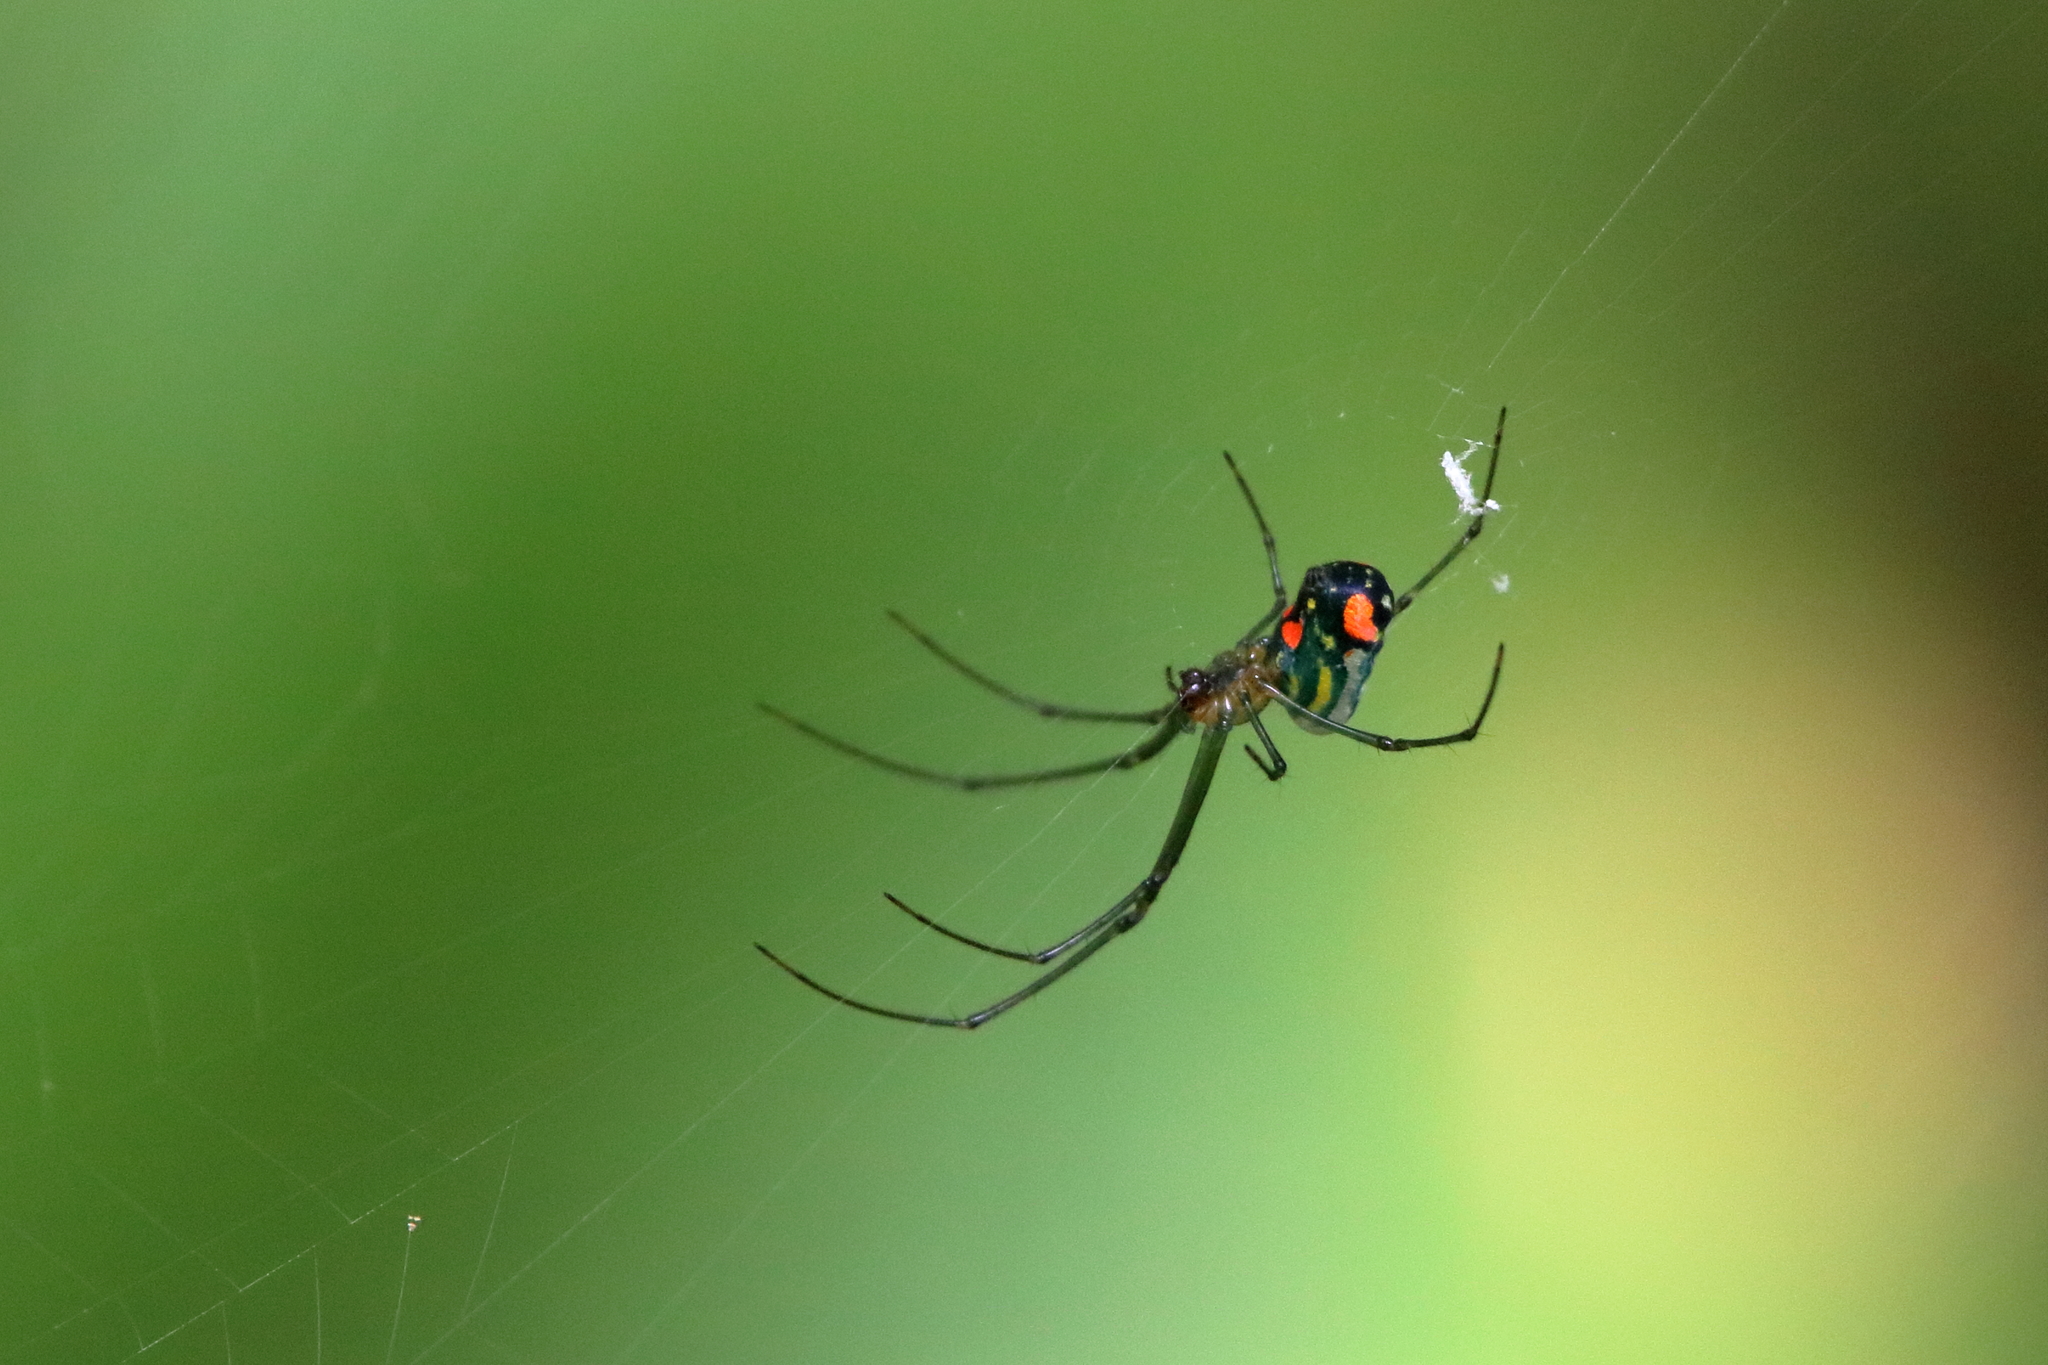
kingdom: Animalia
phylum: Arthropoda
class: Arachnida
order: Araneae
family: Tetragnathidae
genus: Leucauge
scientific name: Leucauge argyrobapta
